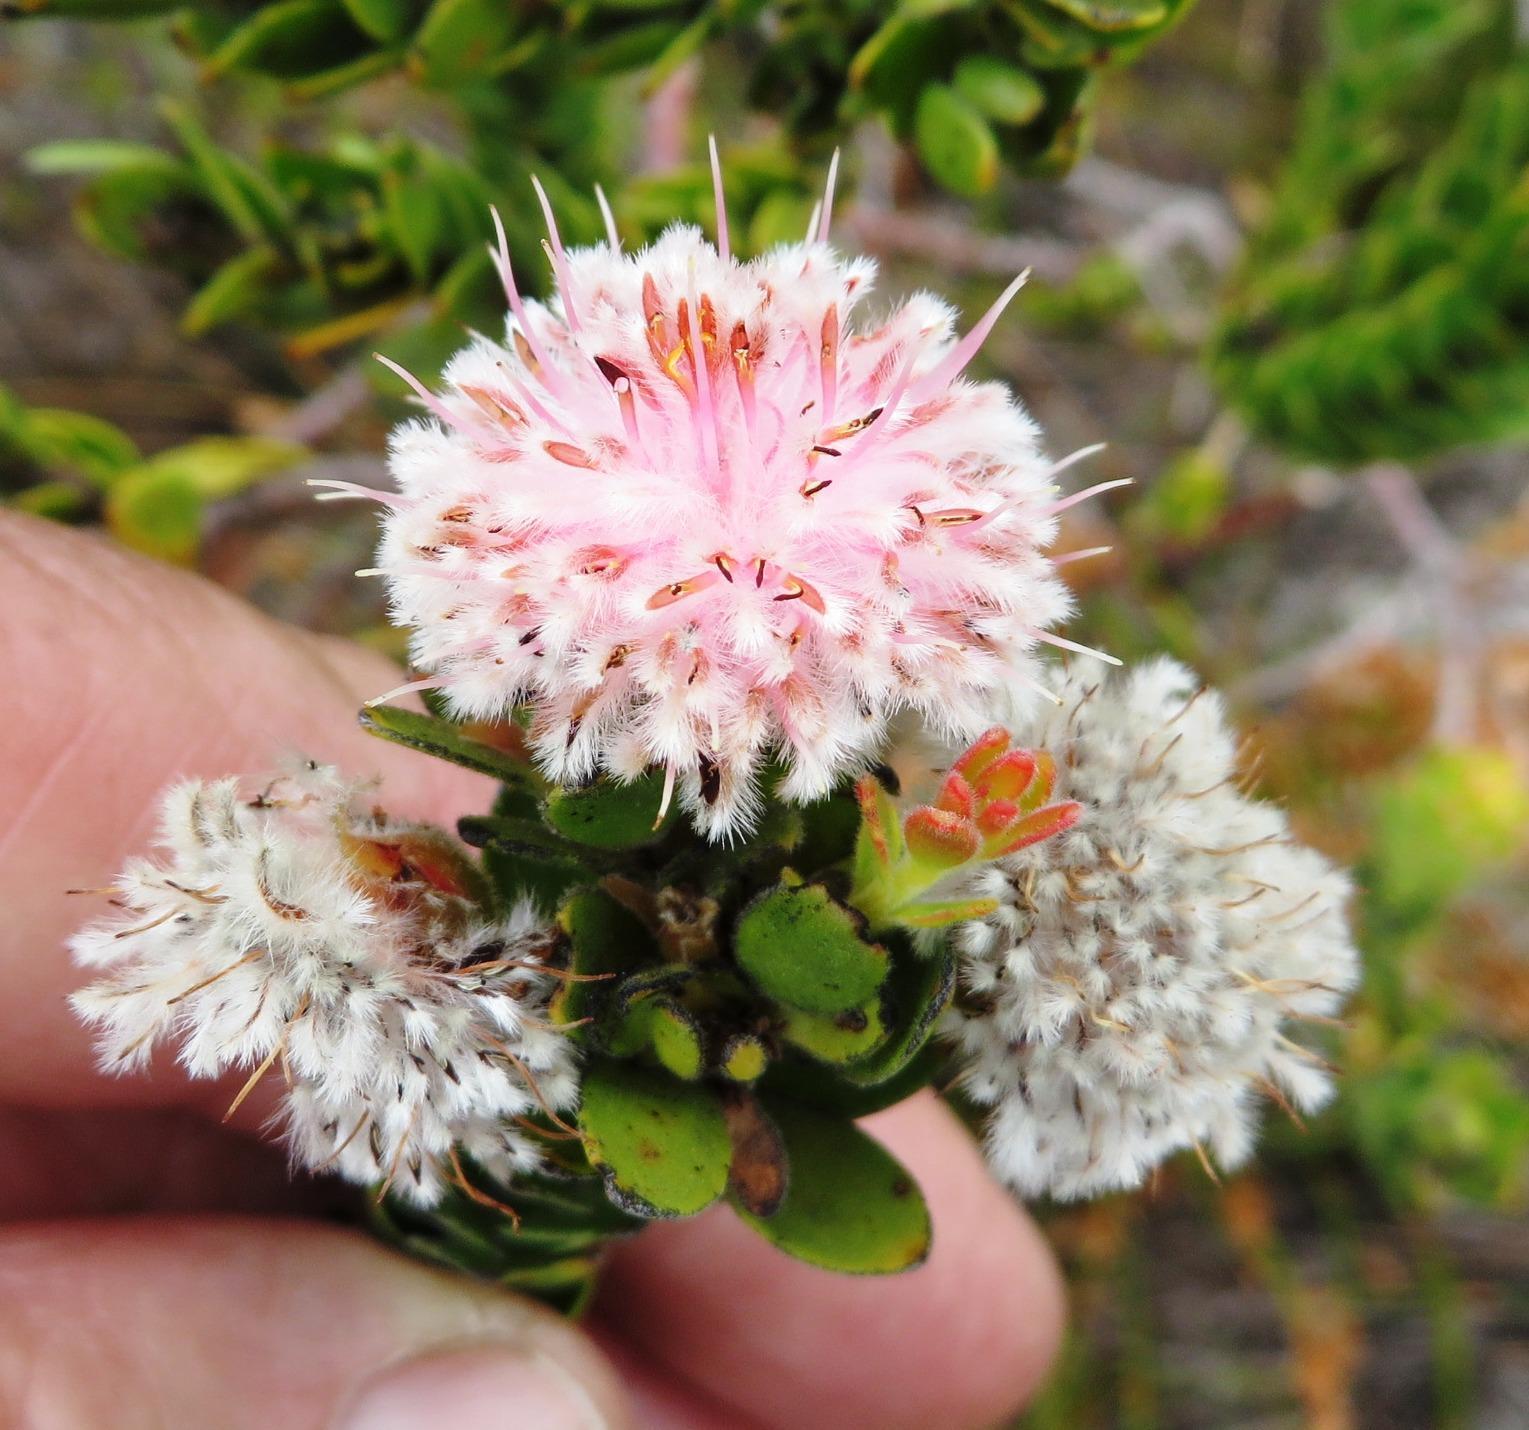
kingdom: Plantae
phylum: Tracheophyta
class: Magnoliopsida
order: Proteales
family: Proteaceae
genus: Diastella
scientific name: Diastella thymelaeoides
